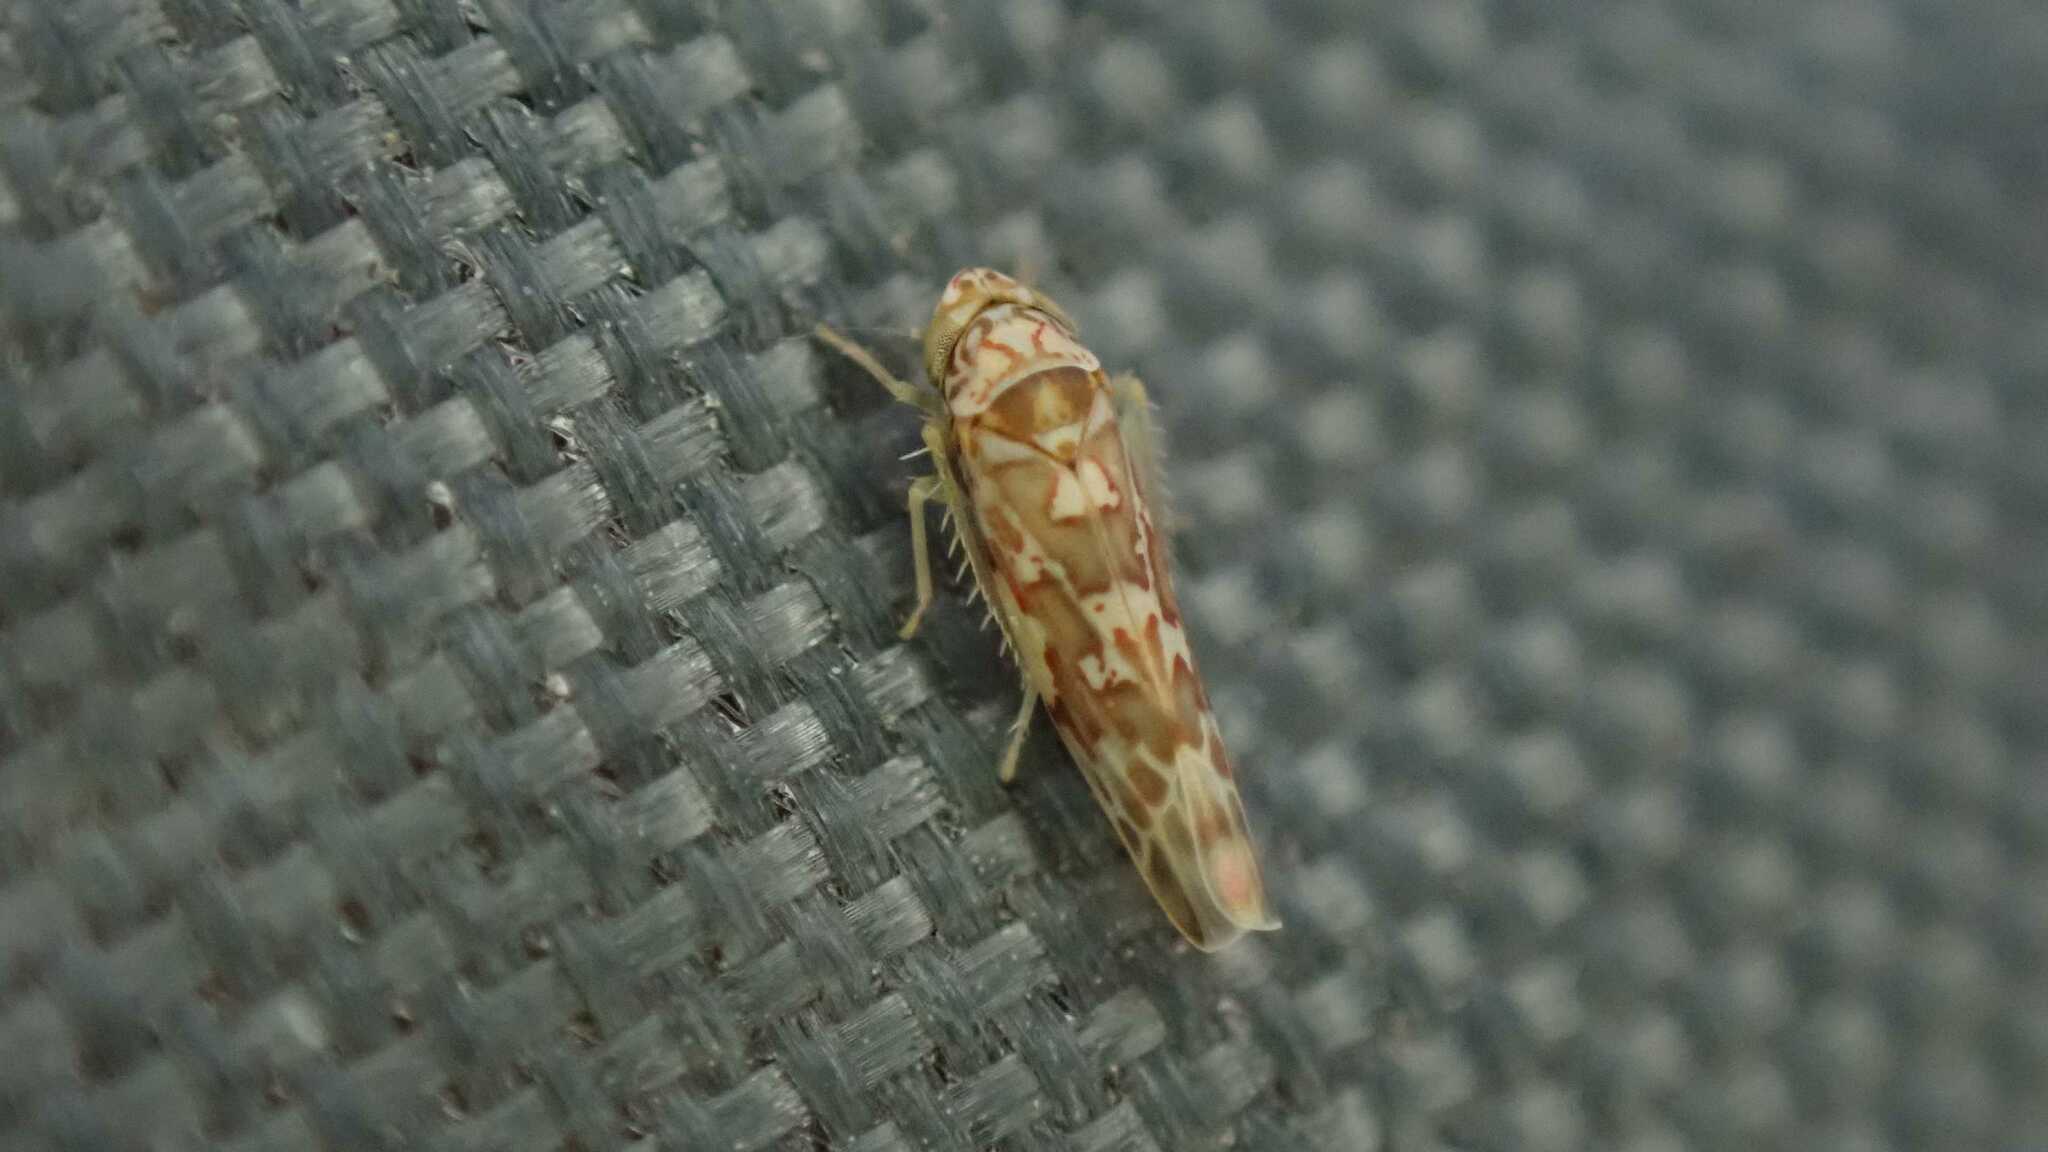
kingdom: Animalia
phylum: Arthropoda
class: Insecta
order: Hemiptera
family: Cicadellidae
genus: Tautoneura
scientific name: Tautoneura polymitusa
